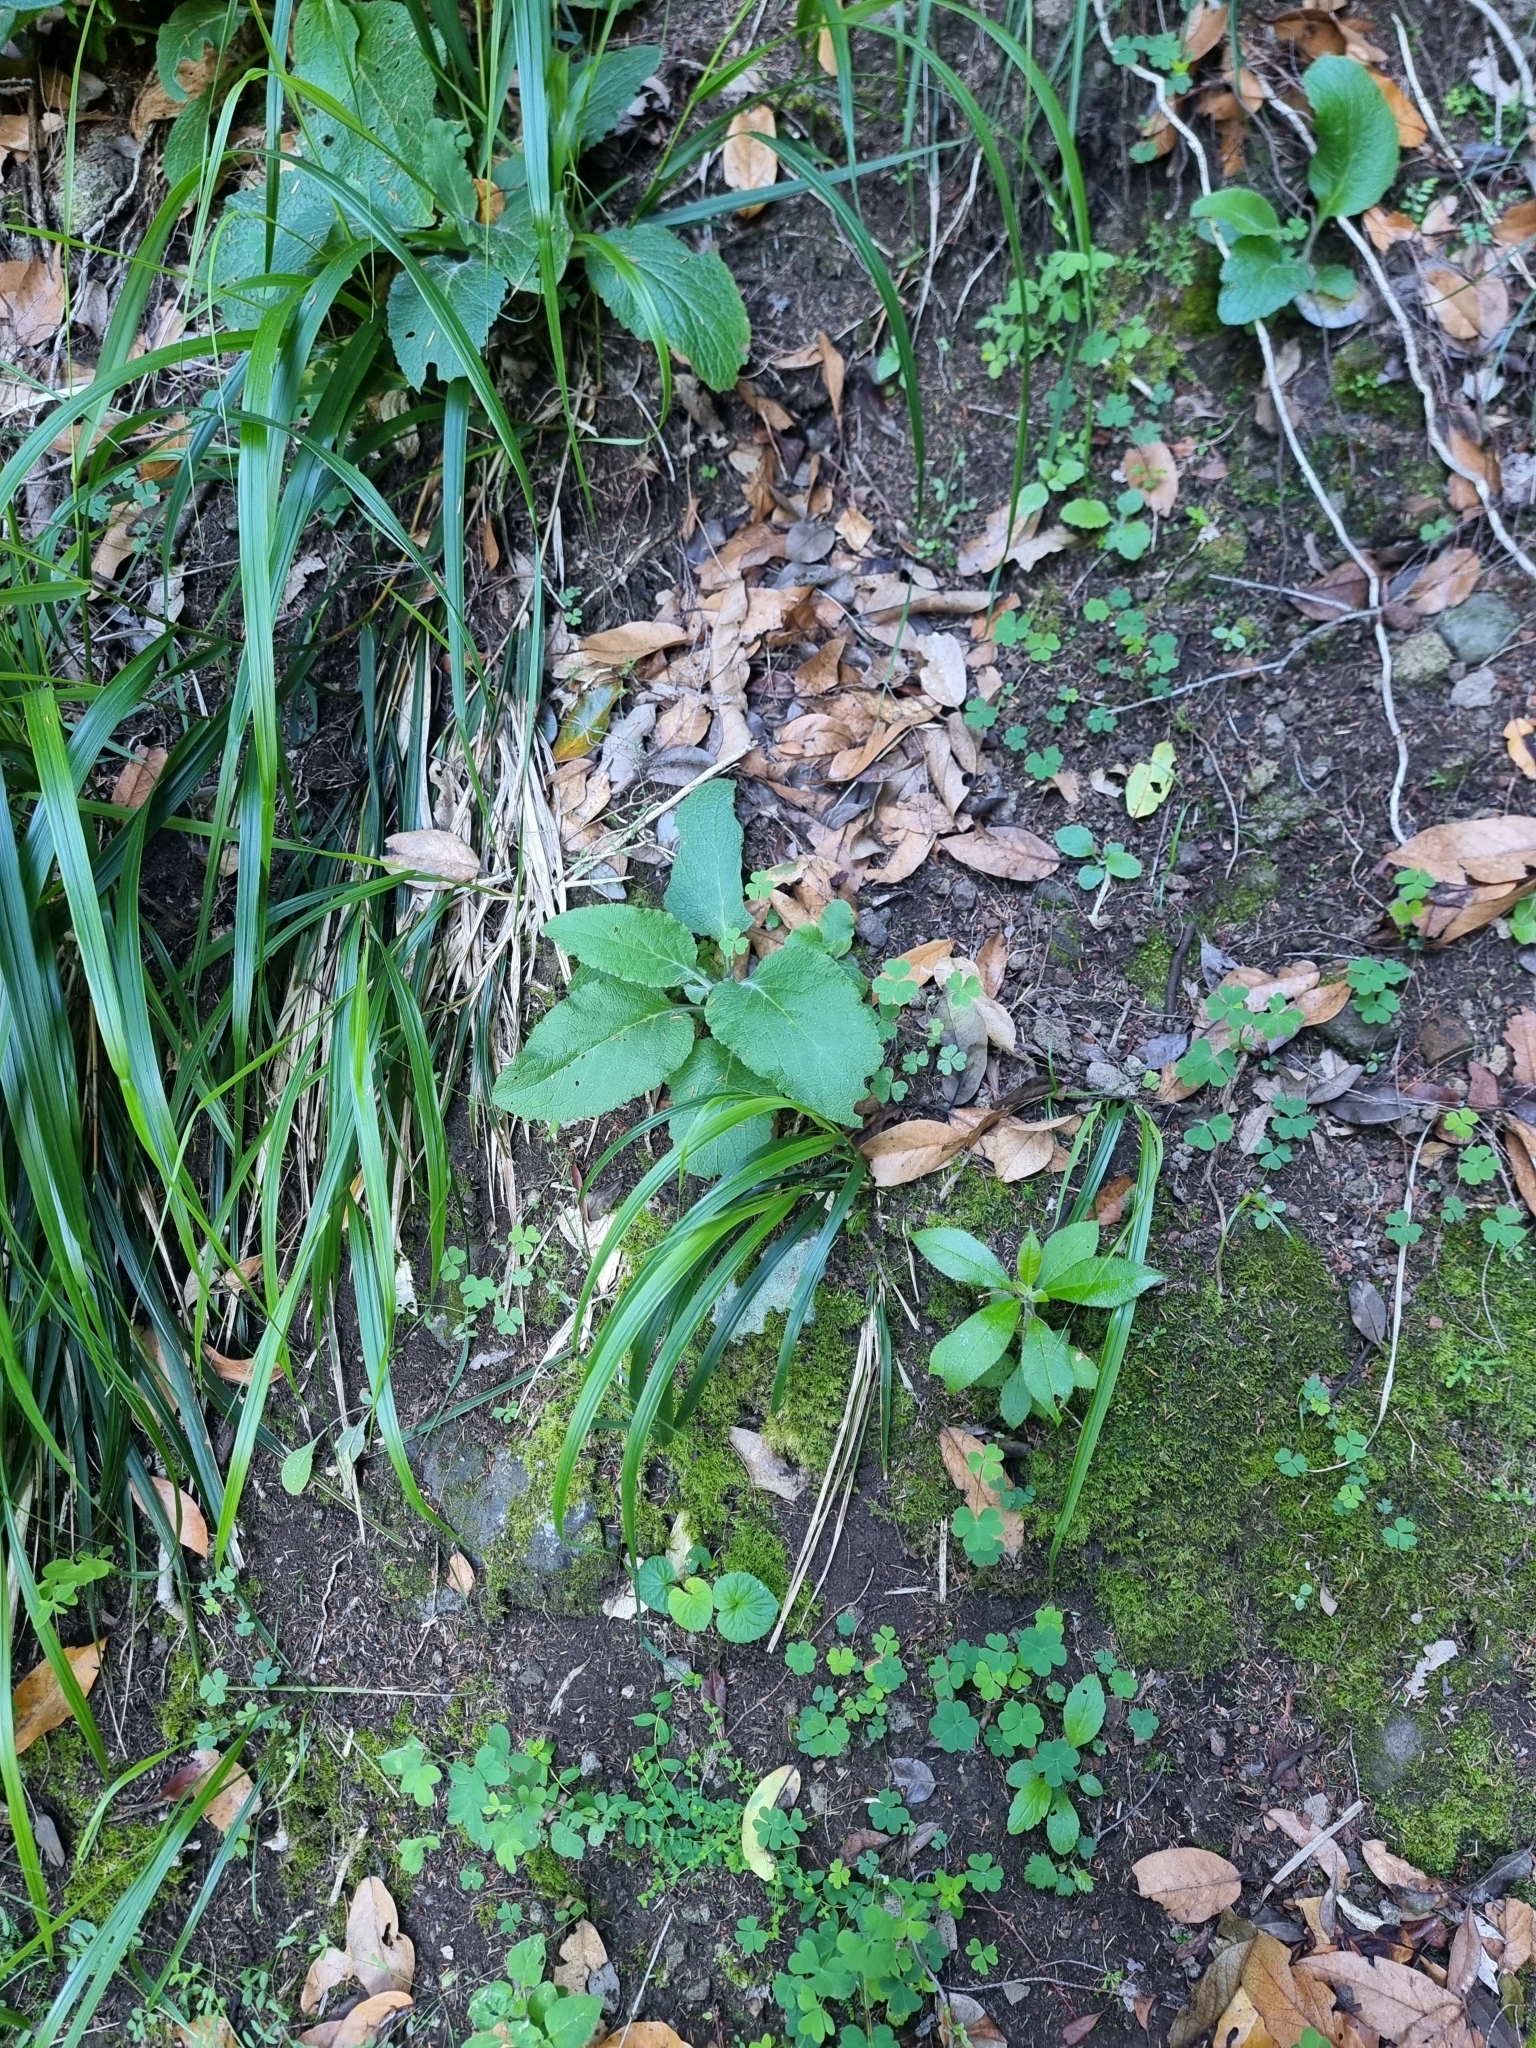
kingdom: Plantae
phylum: Tracheophyta
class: Magnoliopsida
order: Lamiales
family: Plantaginaceae
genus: Digitalis
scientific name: Digitalis purpurea
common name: Foxglove
